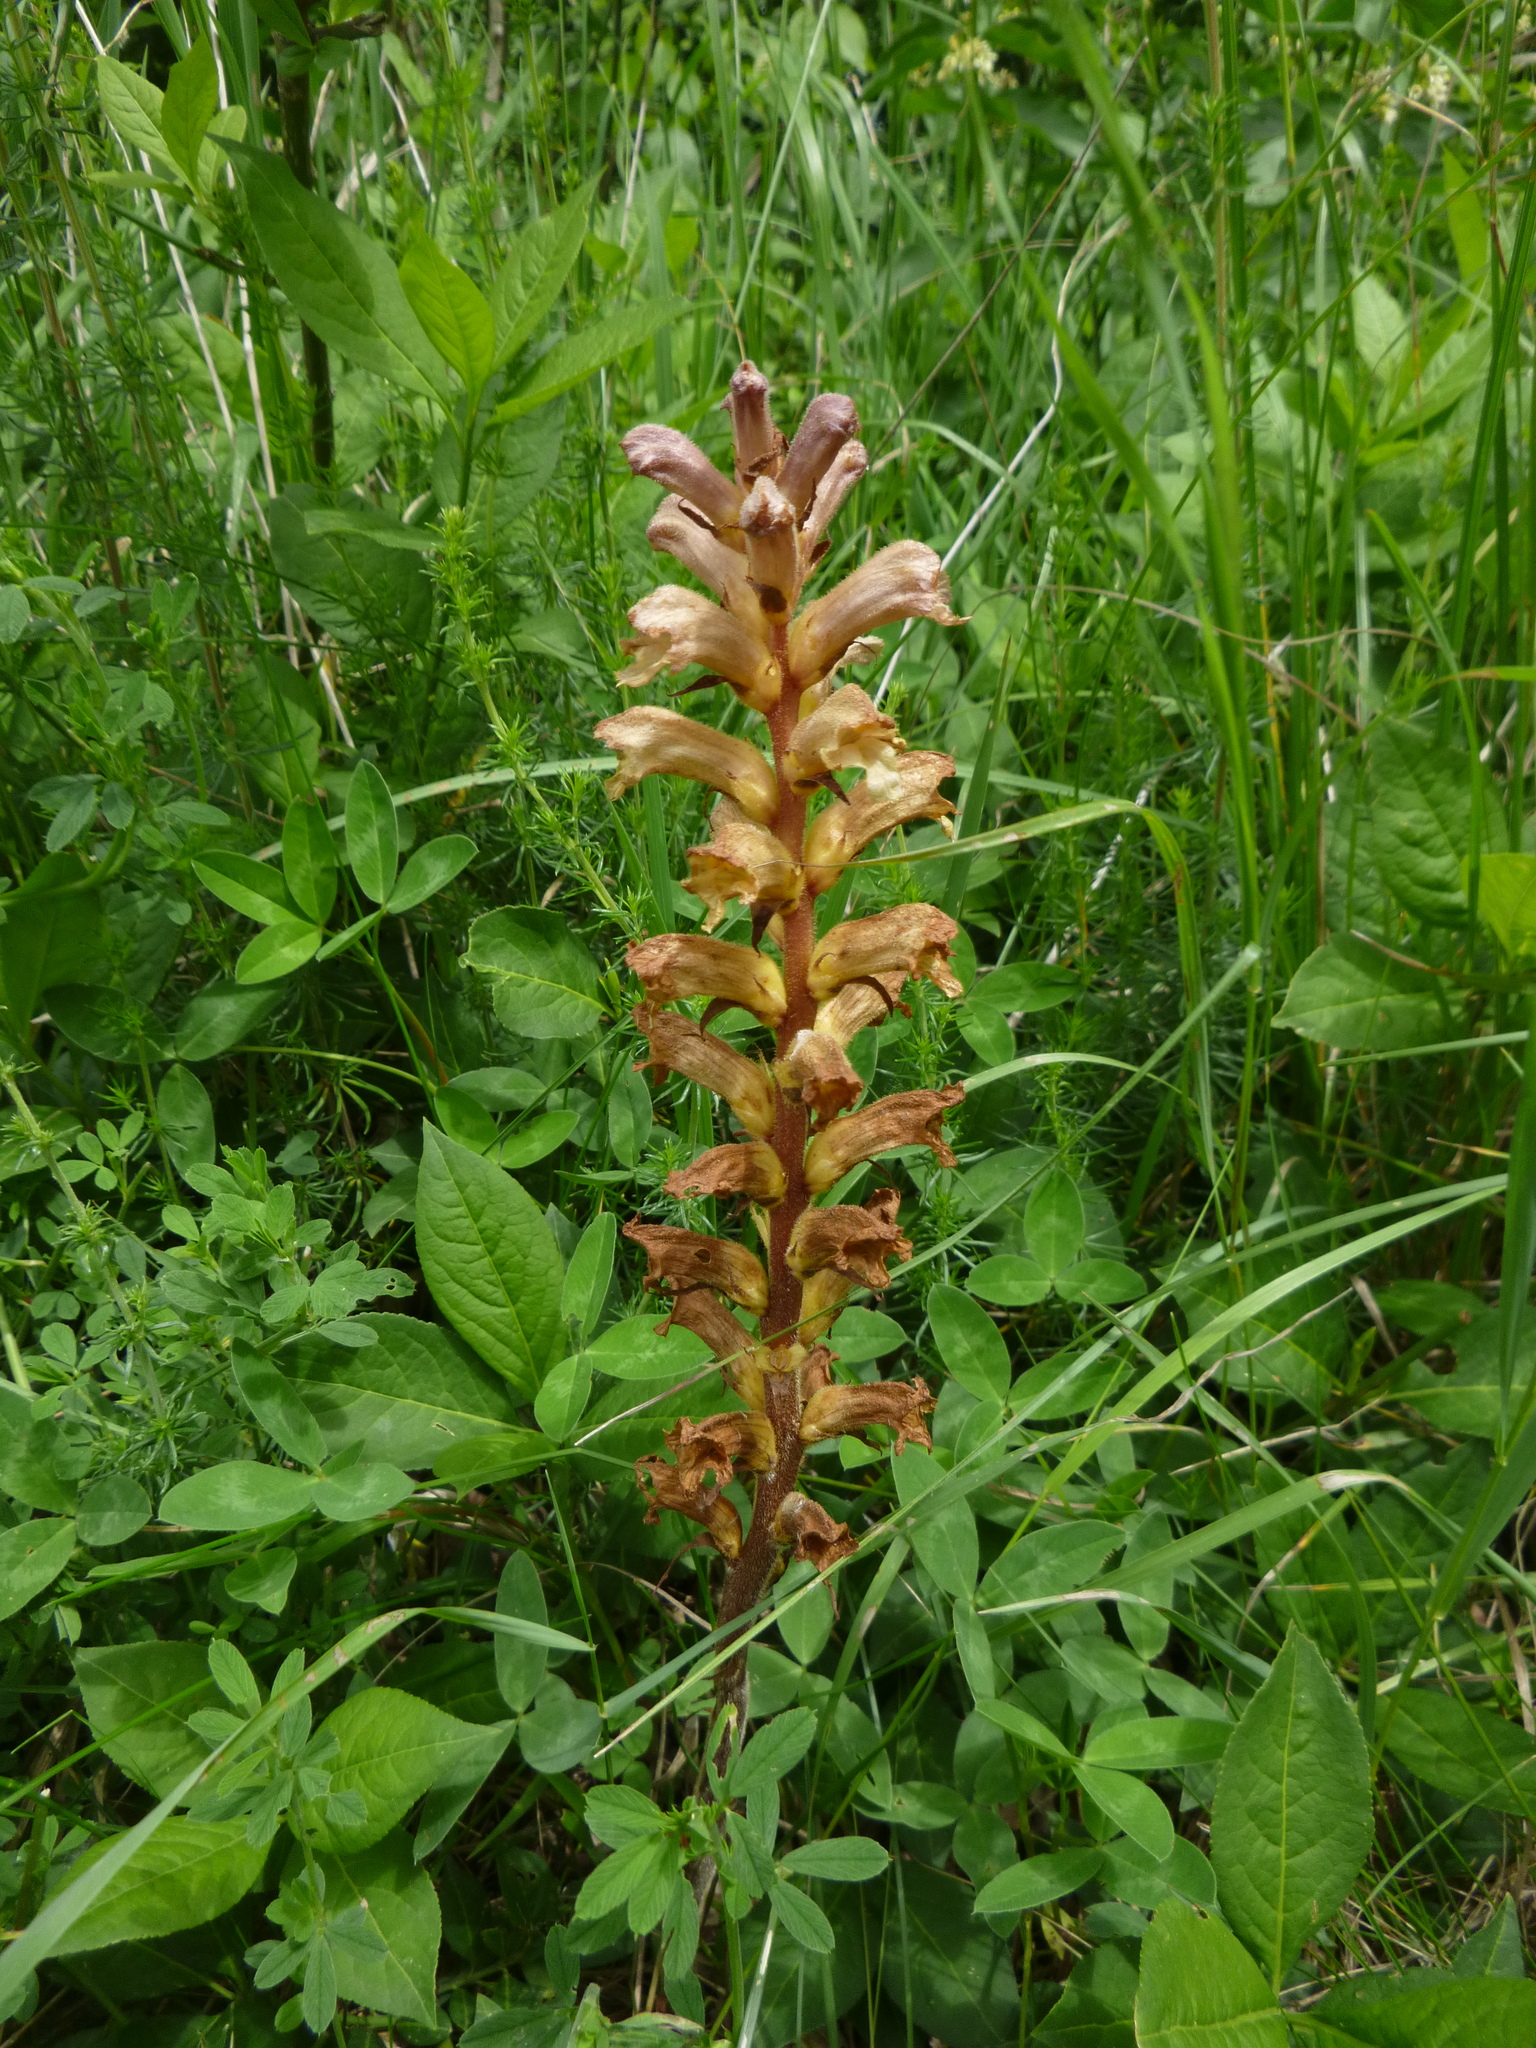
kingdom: Plantae
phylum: Tracheophyta
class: Magnoliopsida
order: Lamiales
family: Orobanchaceae
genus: Orobanche
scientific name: Orobanche lutea
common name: Yellow broomrape
